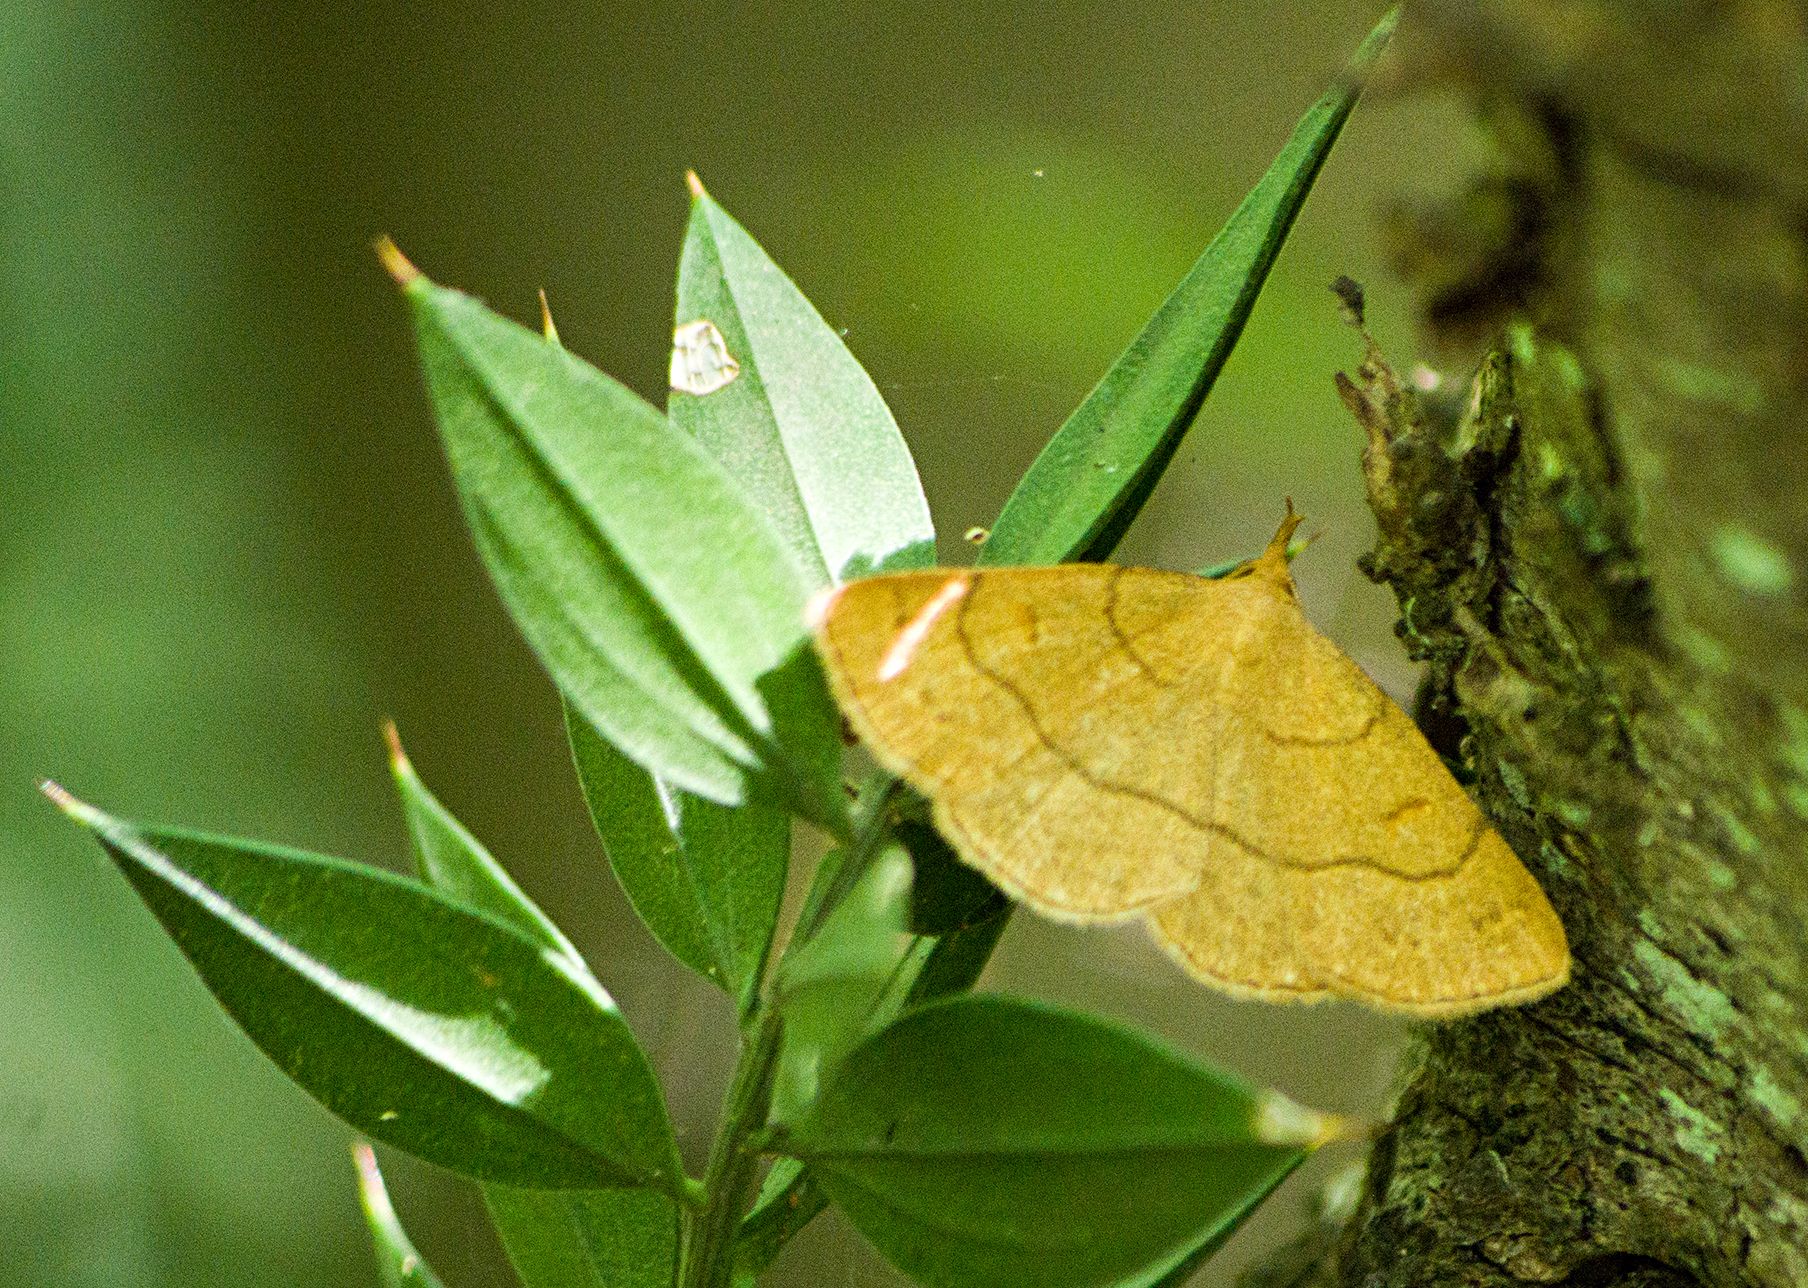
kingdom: Animalia
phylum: Arthropoda
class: Insecta
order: Lepidoptera
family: Erebidae
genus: Paracolax
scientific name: Paracolax tristalis
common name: Clay fan-foot
